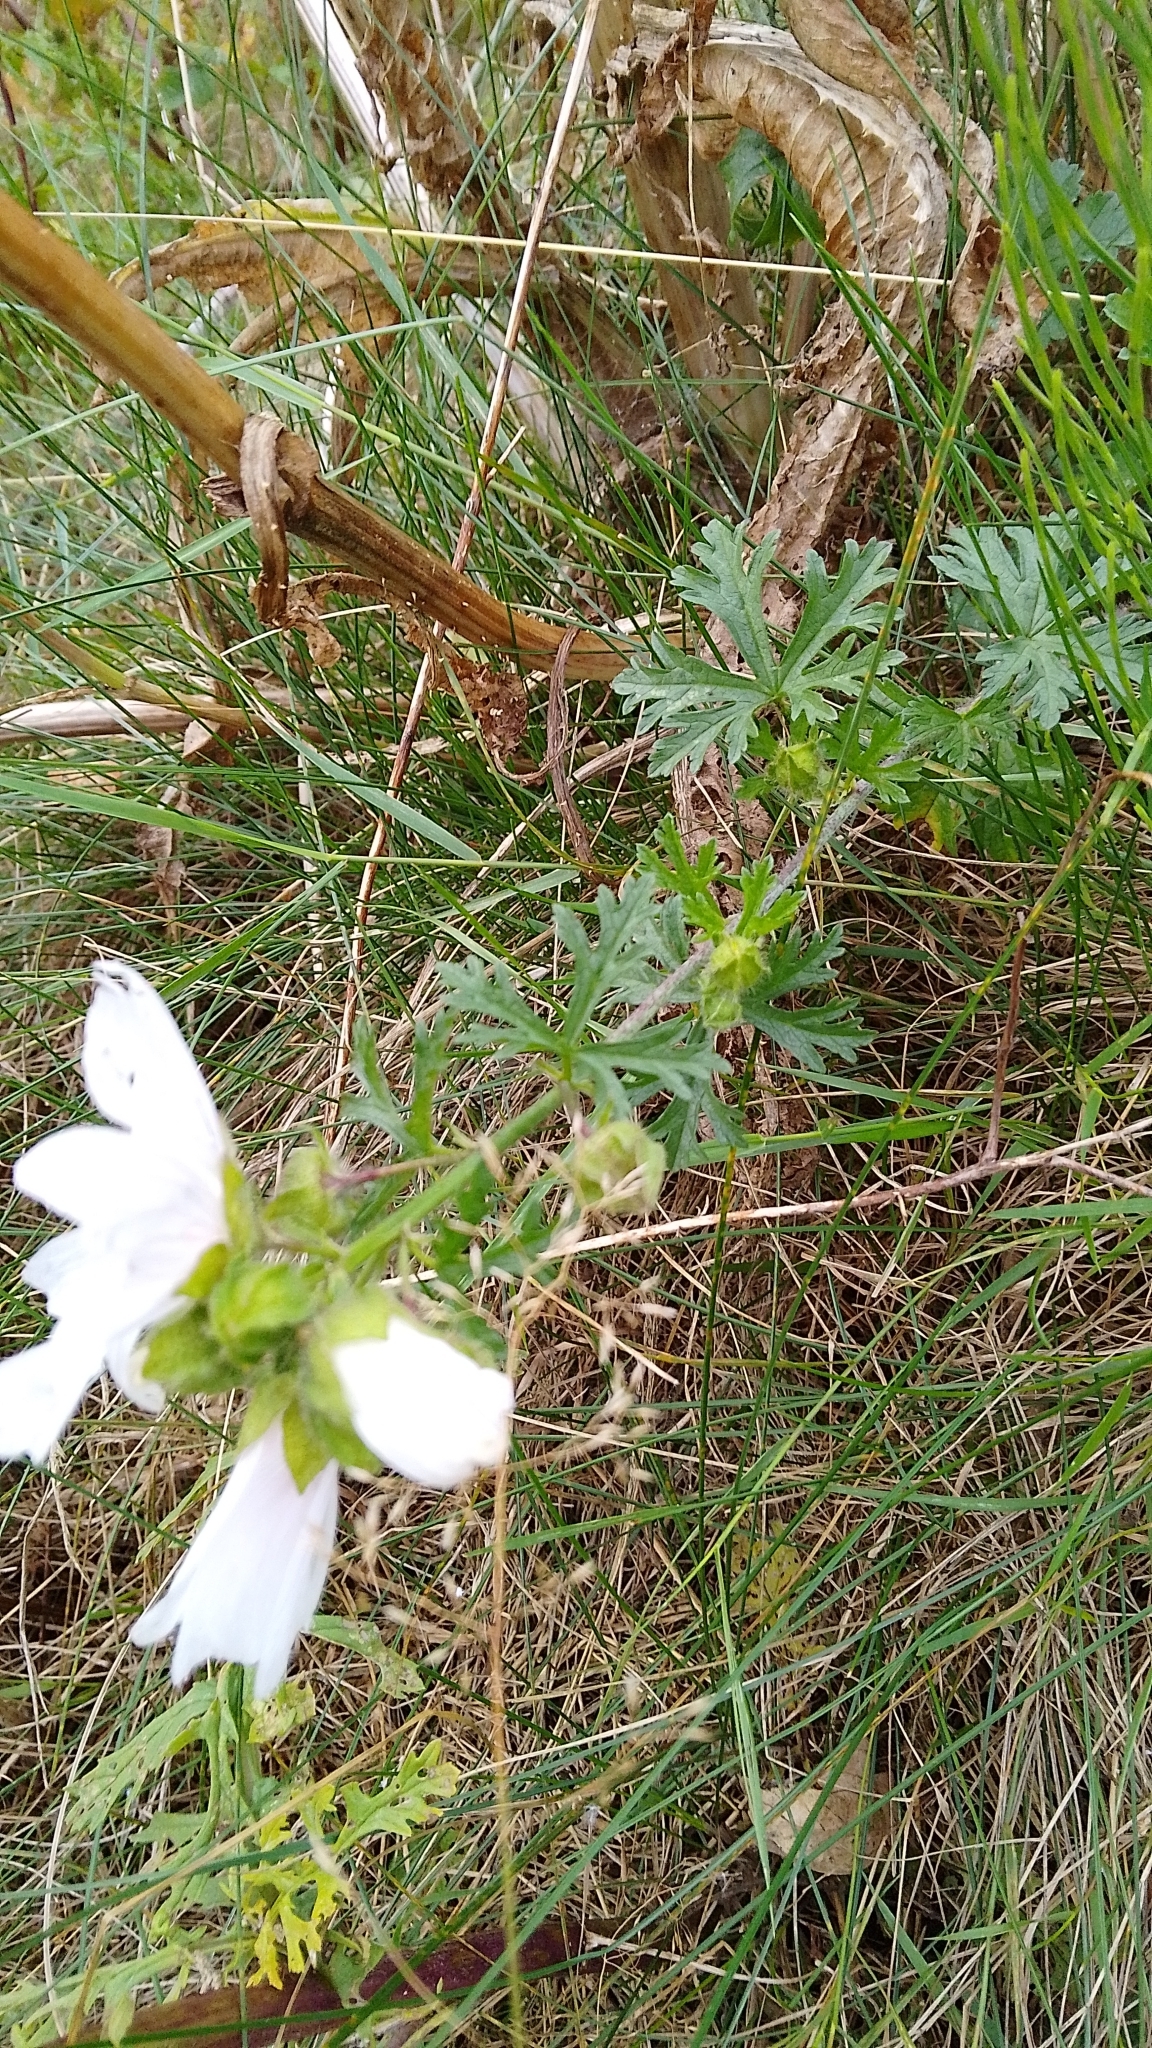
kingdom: Plantae
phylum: Tracheophyta
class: Magnoliopsida
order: Malvales
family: Malvaceae
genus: Malva
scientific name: Malva moschata
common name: Musk mallow
